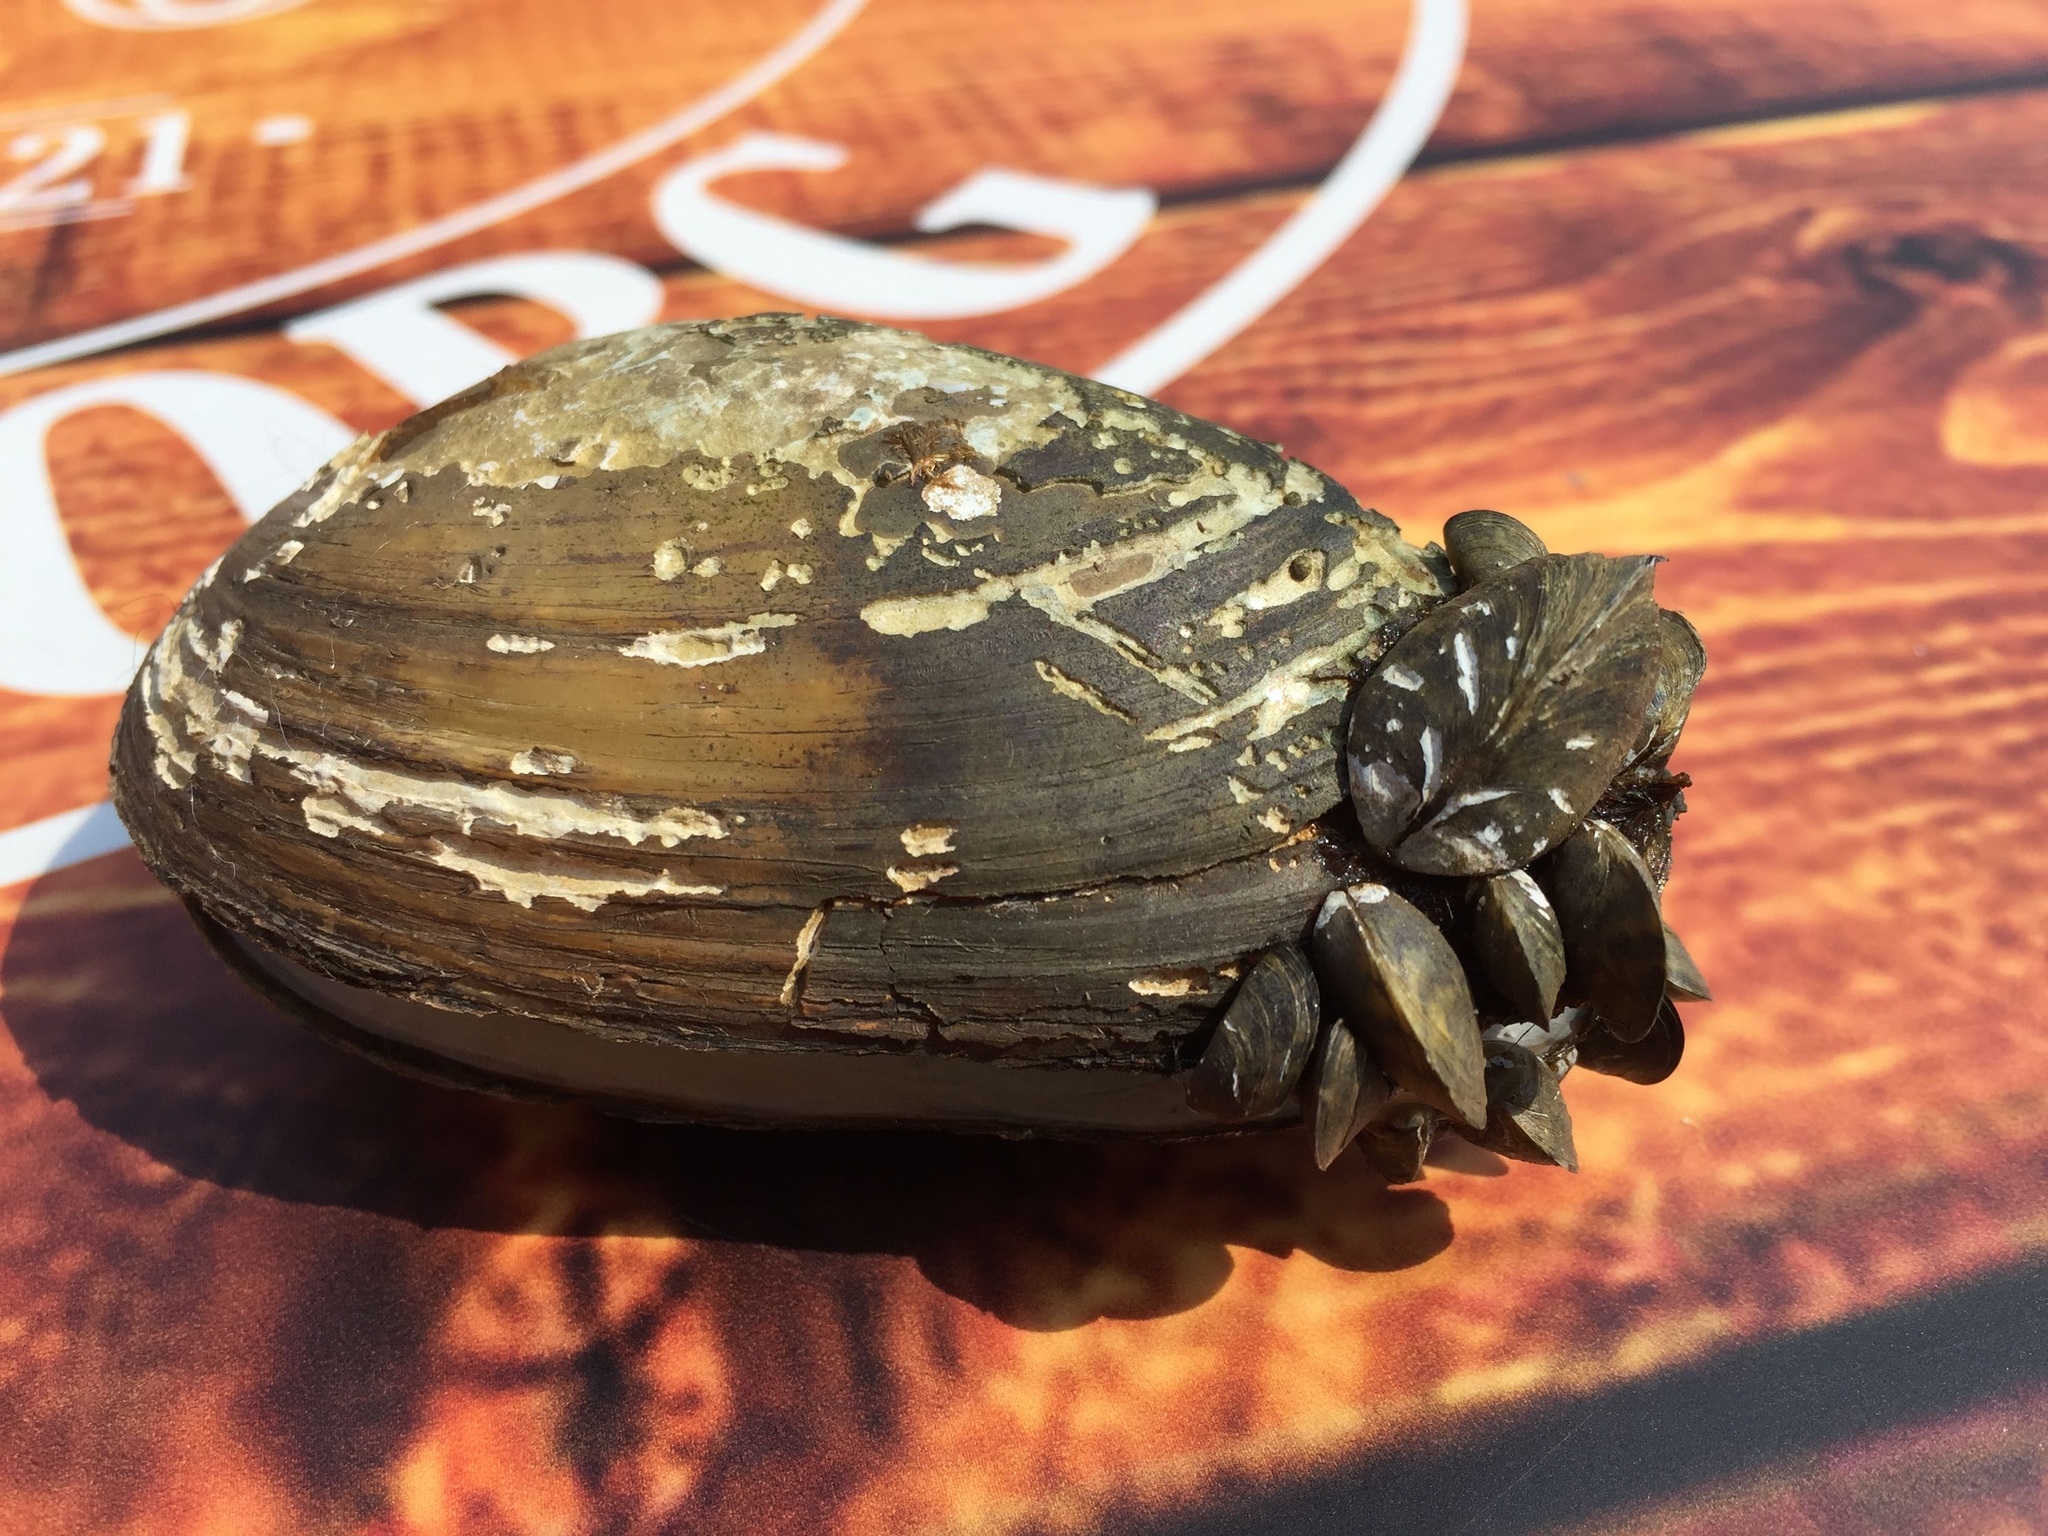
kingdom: Animalia
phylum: Mollusca
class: Bivalvia
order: Unionida
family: Unionidae
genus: Anodonta
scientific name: Anodonta anatina
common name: Duck mussel
